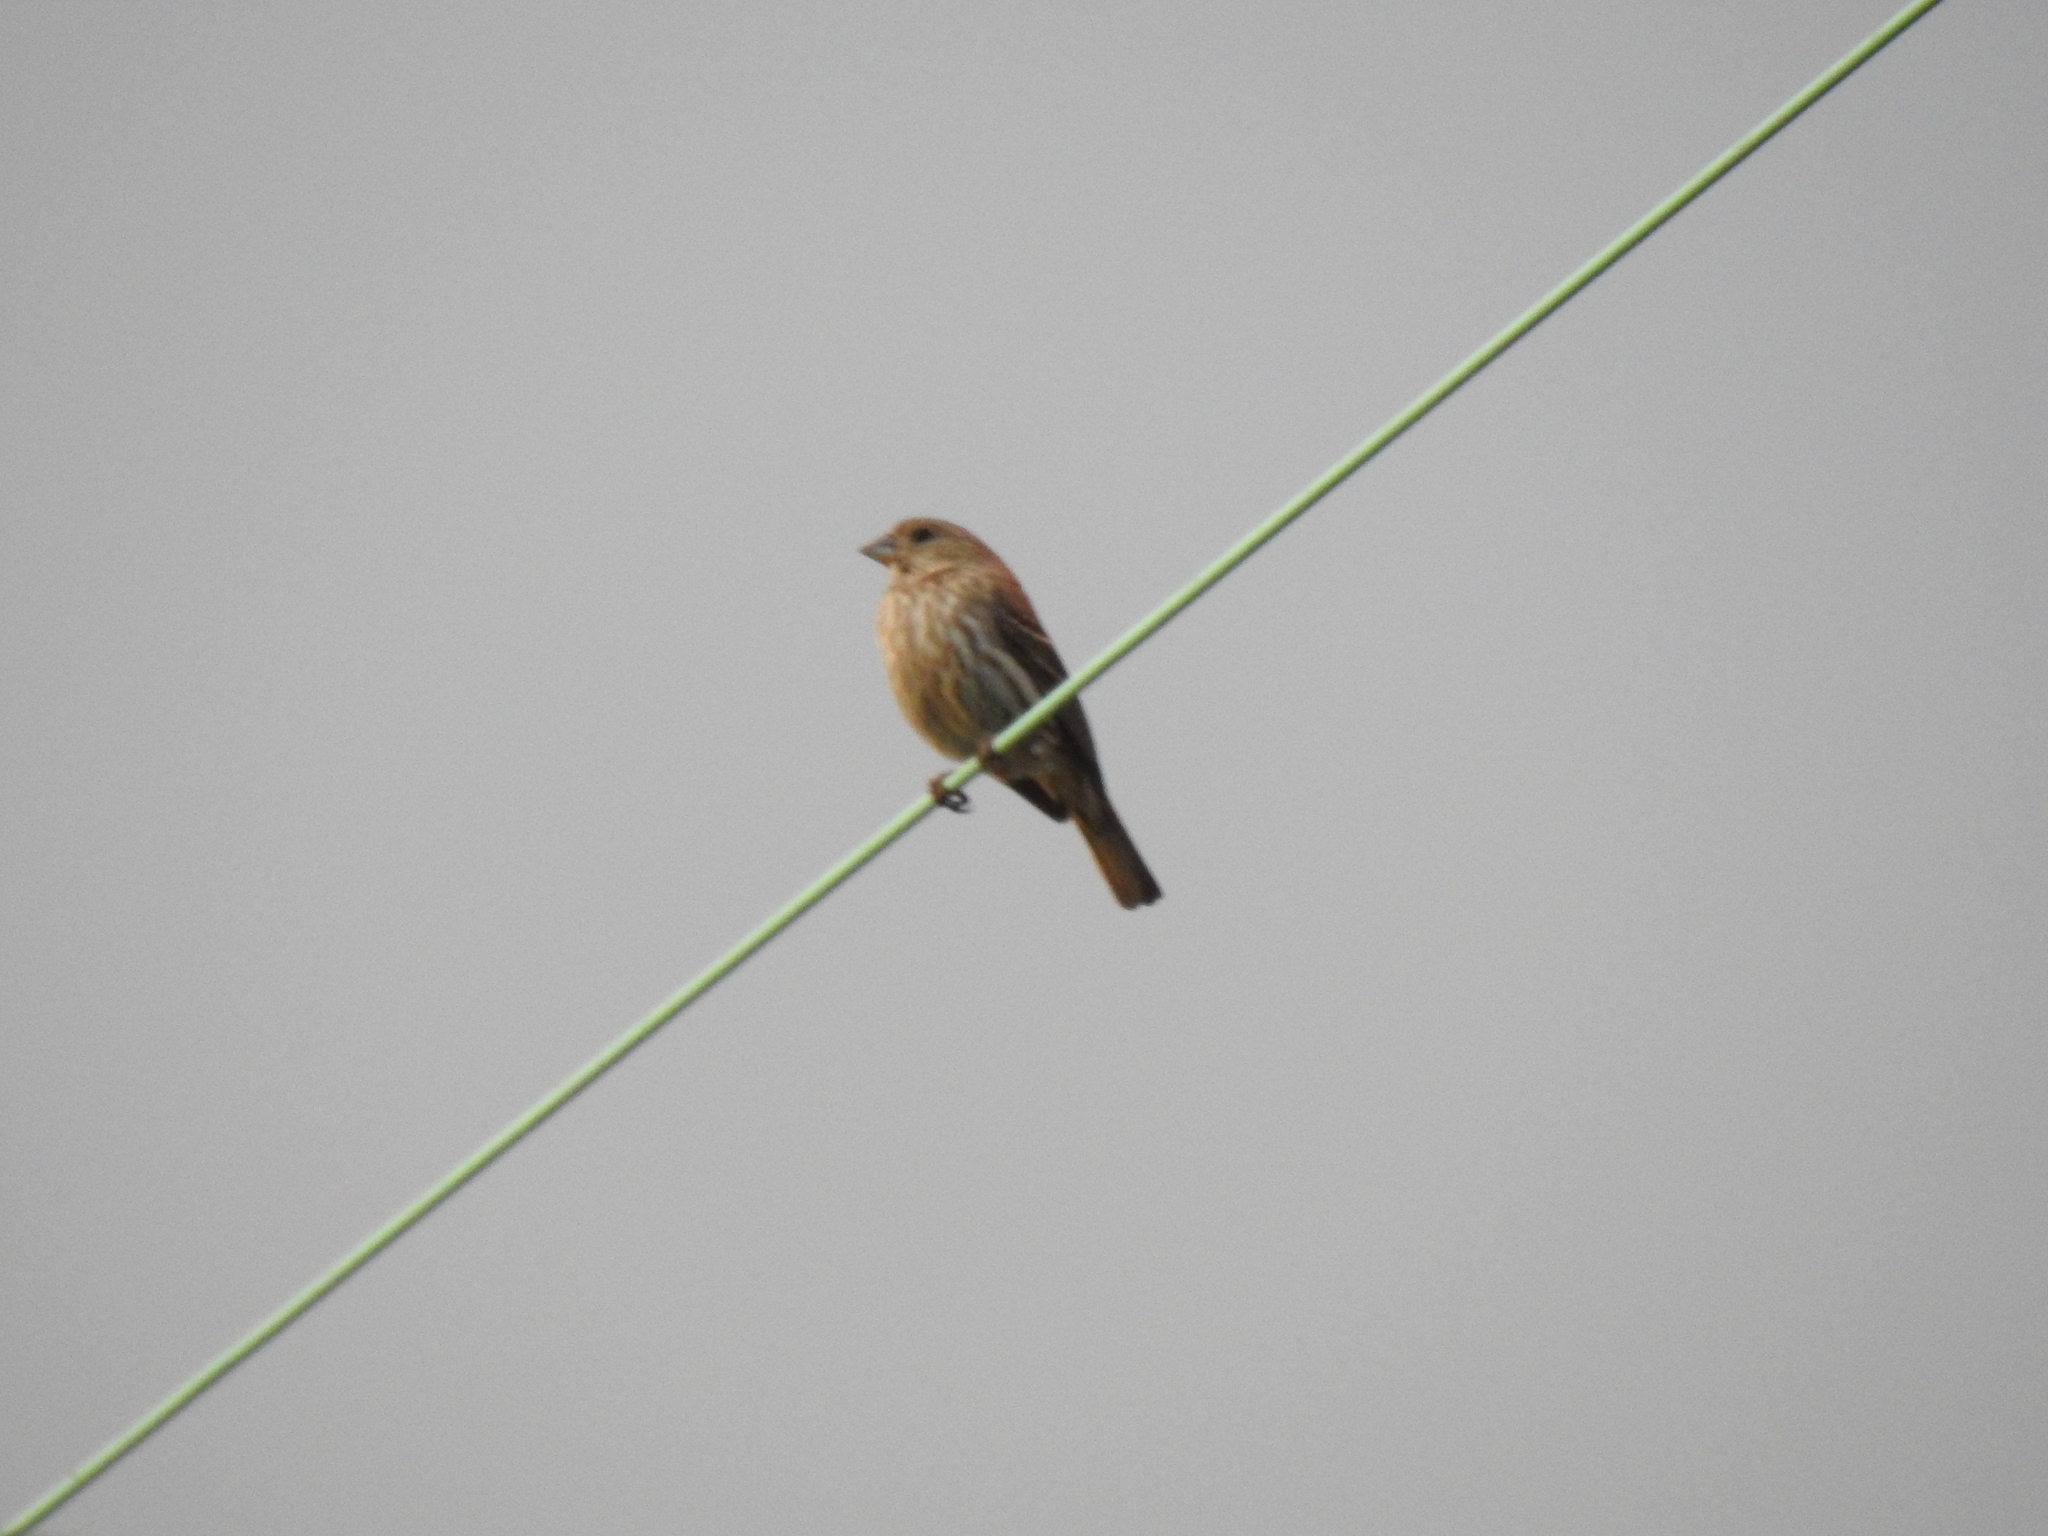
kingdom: Animalia
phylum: Chordata
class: Aves
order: Passeriformes
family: Fringillidae
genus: Haemorhous
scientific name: Haemorhous mexicanus
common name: House finch
